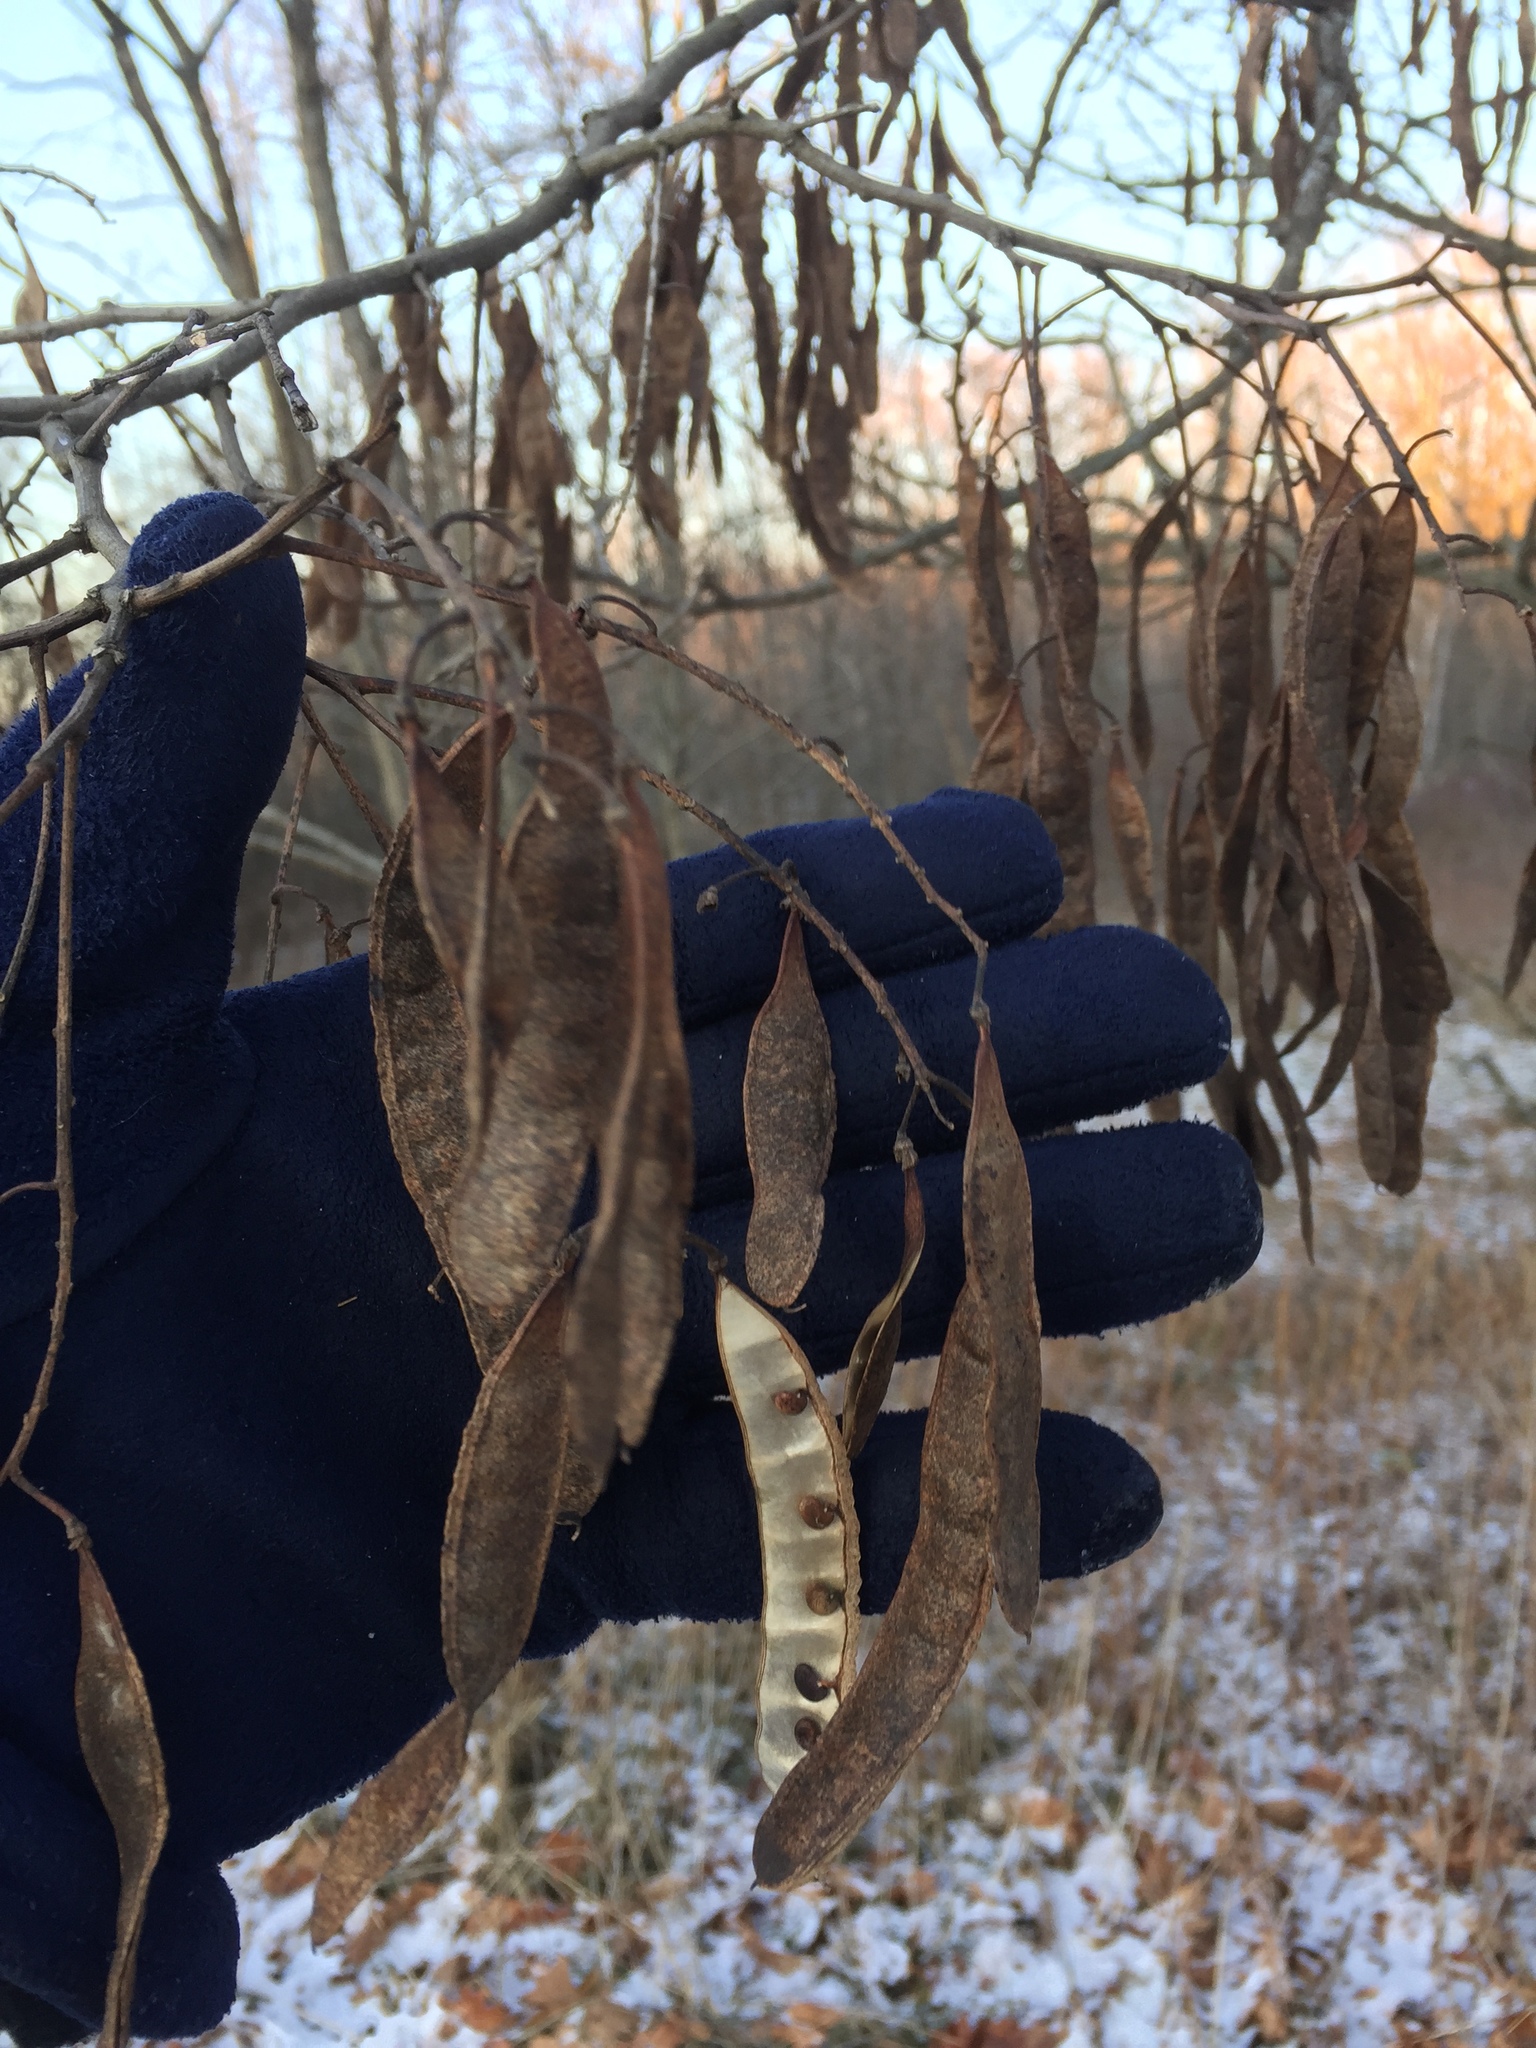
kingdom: Plantae
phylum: Tracheophyta
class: Magnoliopsida
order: Fabales
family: Fabaceae
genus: Robinia
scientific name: Robinia pseudoacacia
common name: Black locust
